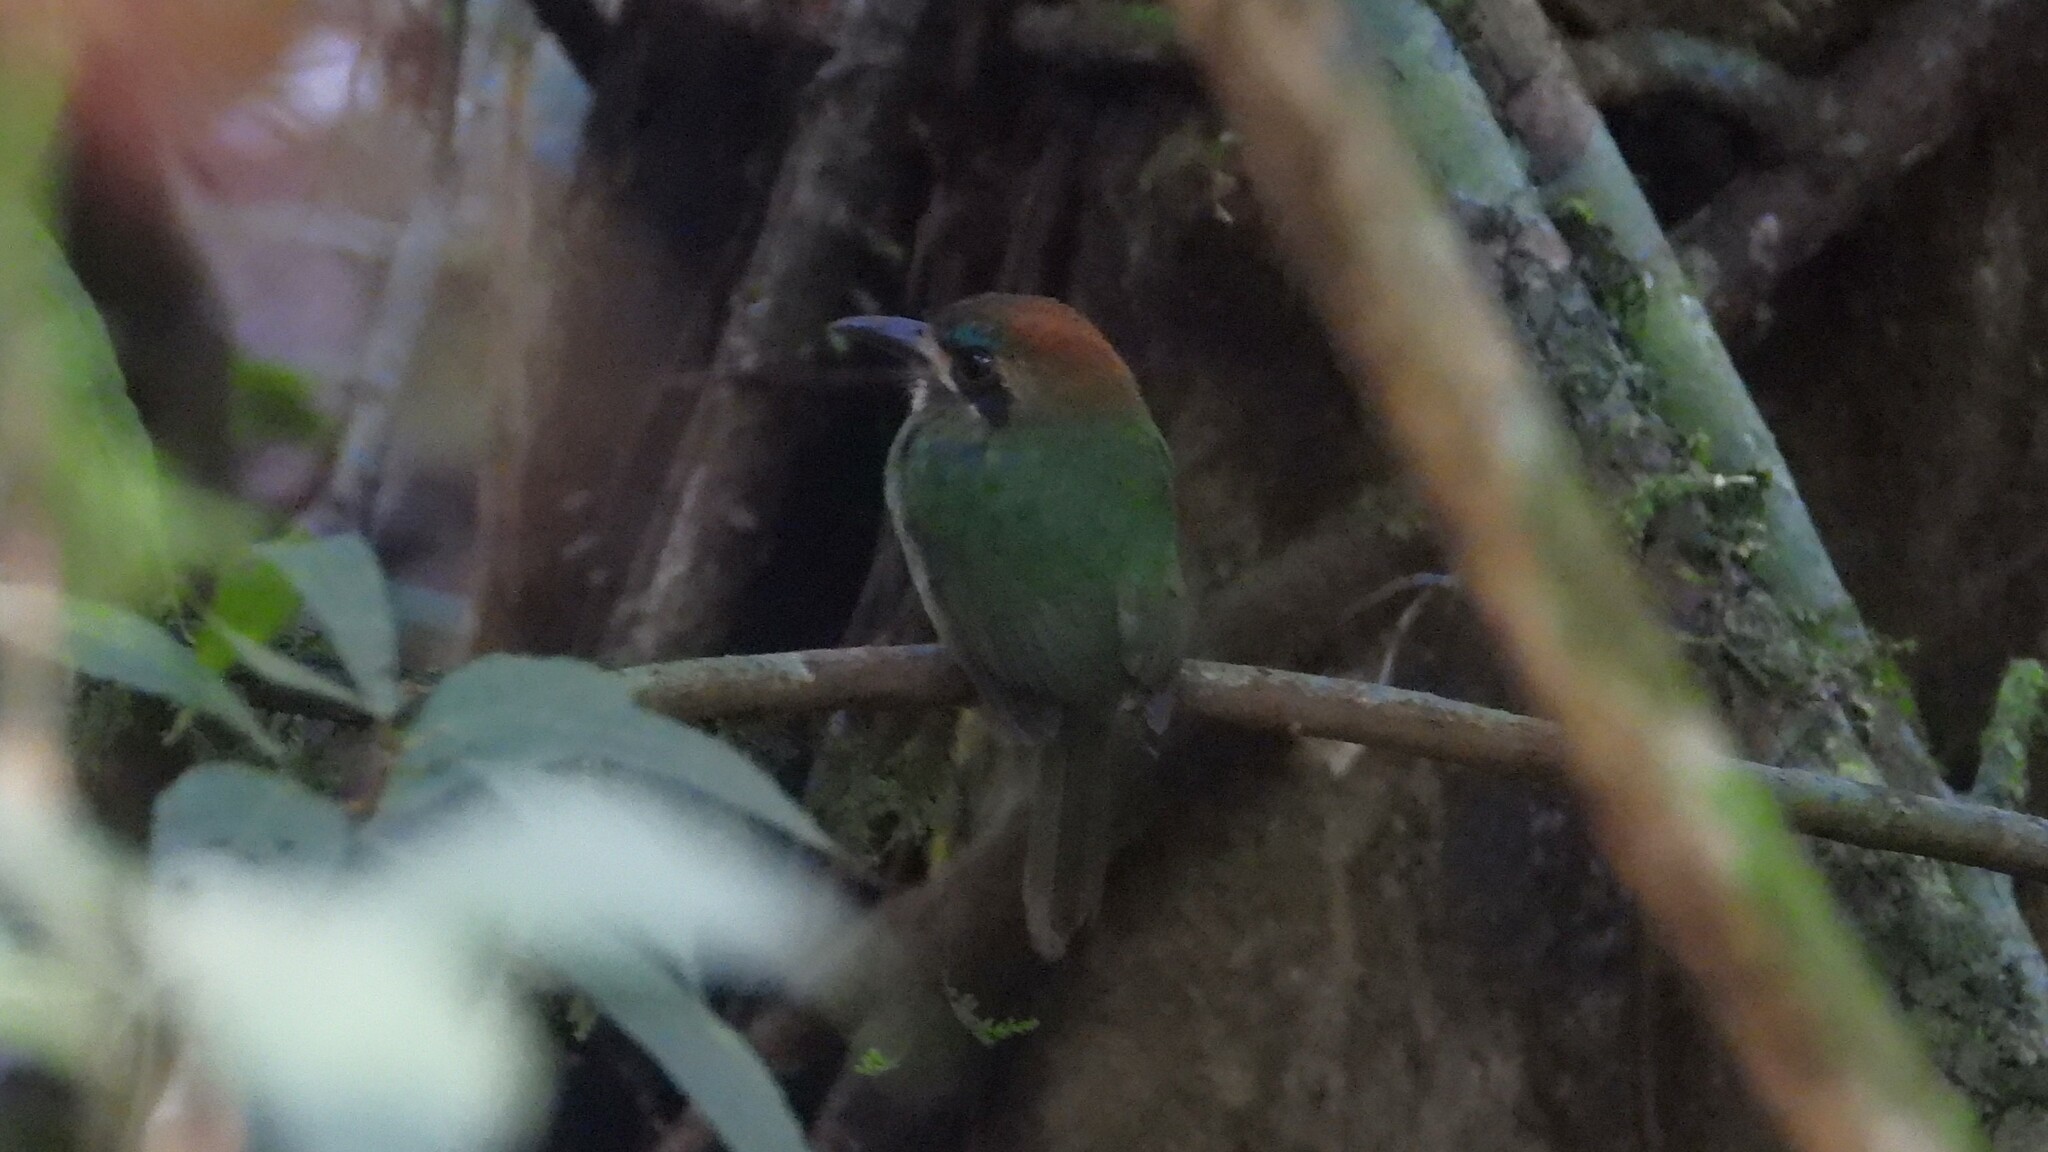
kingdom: Animalia
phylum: Chordata
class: Aves
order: Coraciiformes
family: Momotidae
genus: Hylomanes
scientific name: Hylomanes momotula
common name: Tody motmot
